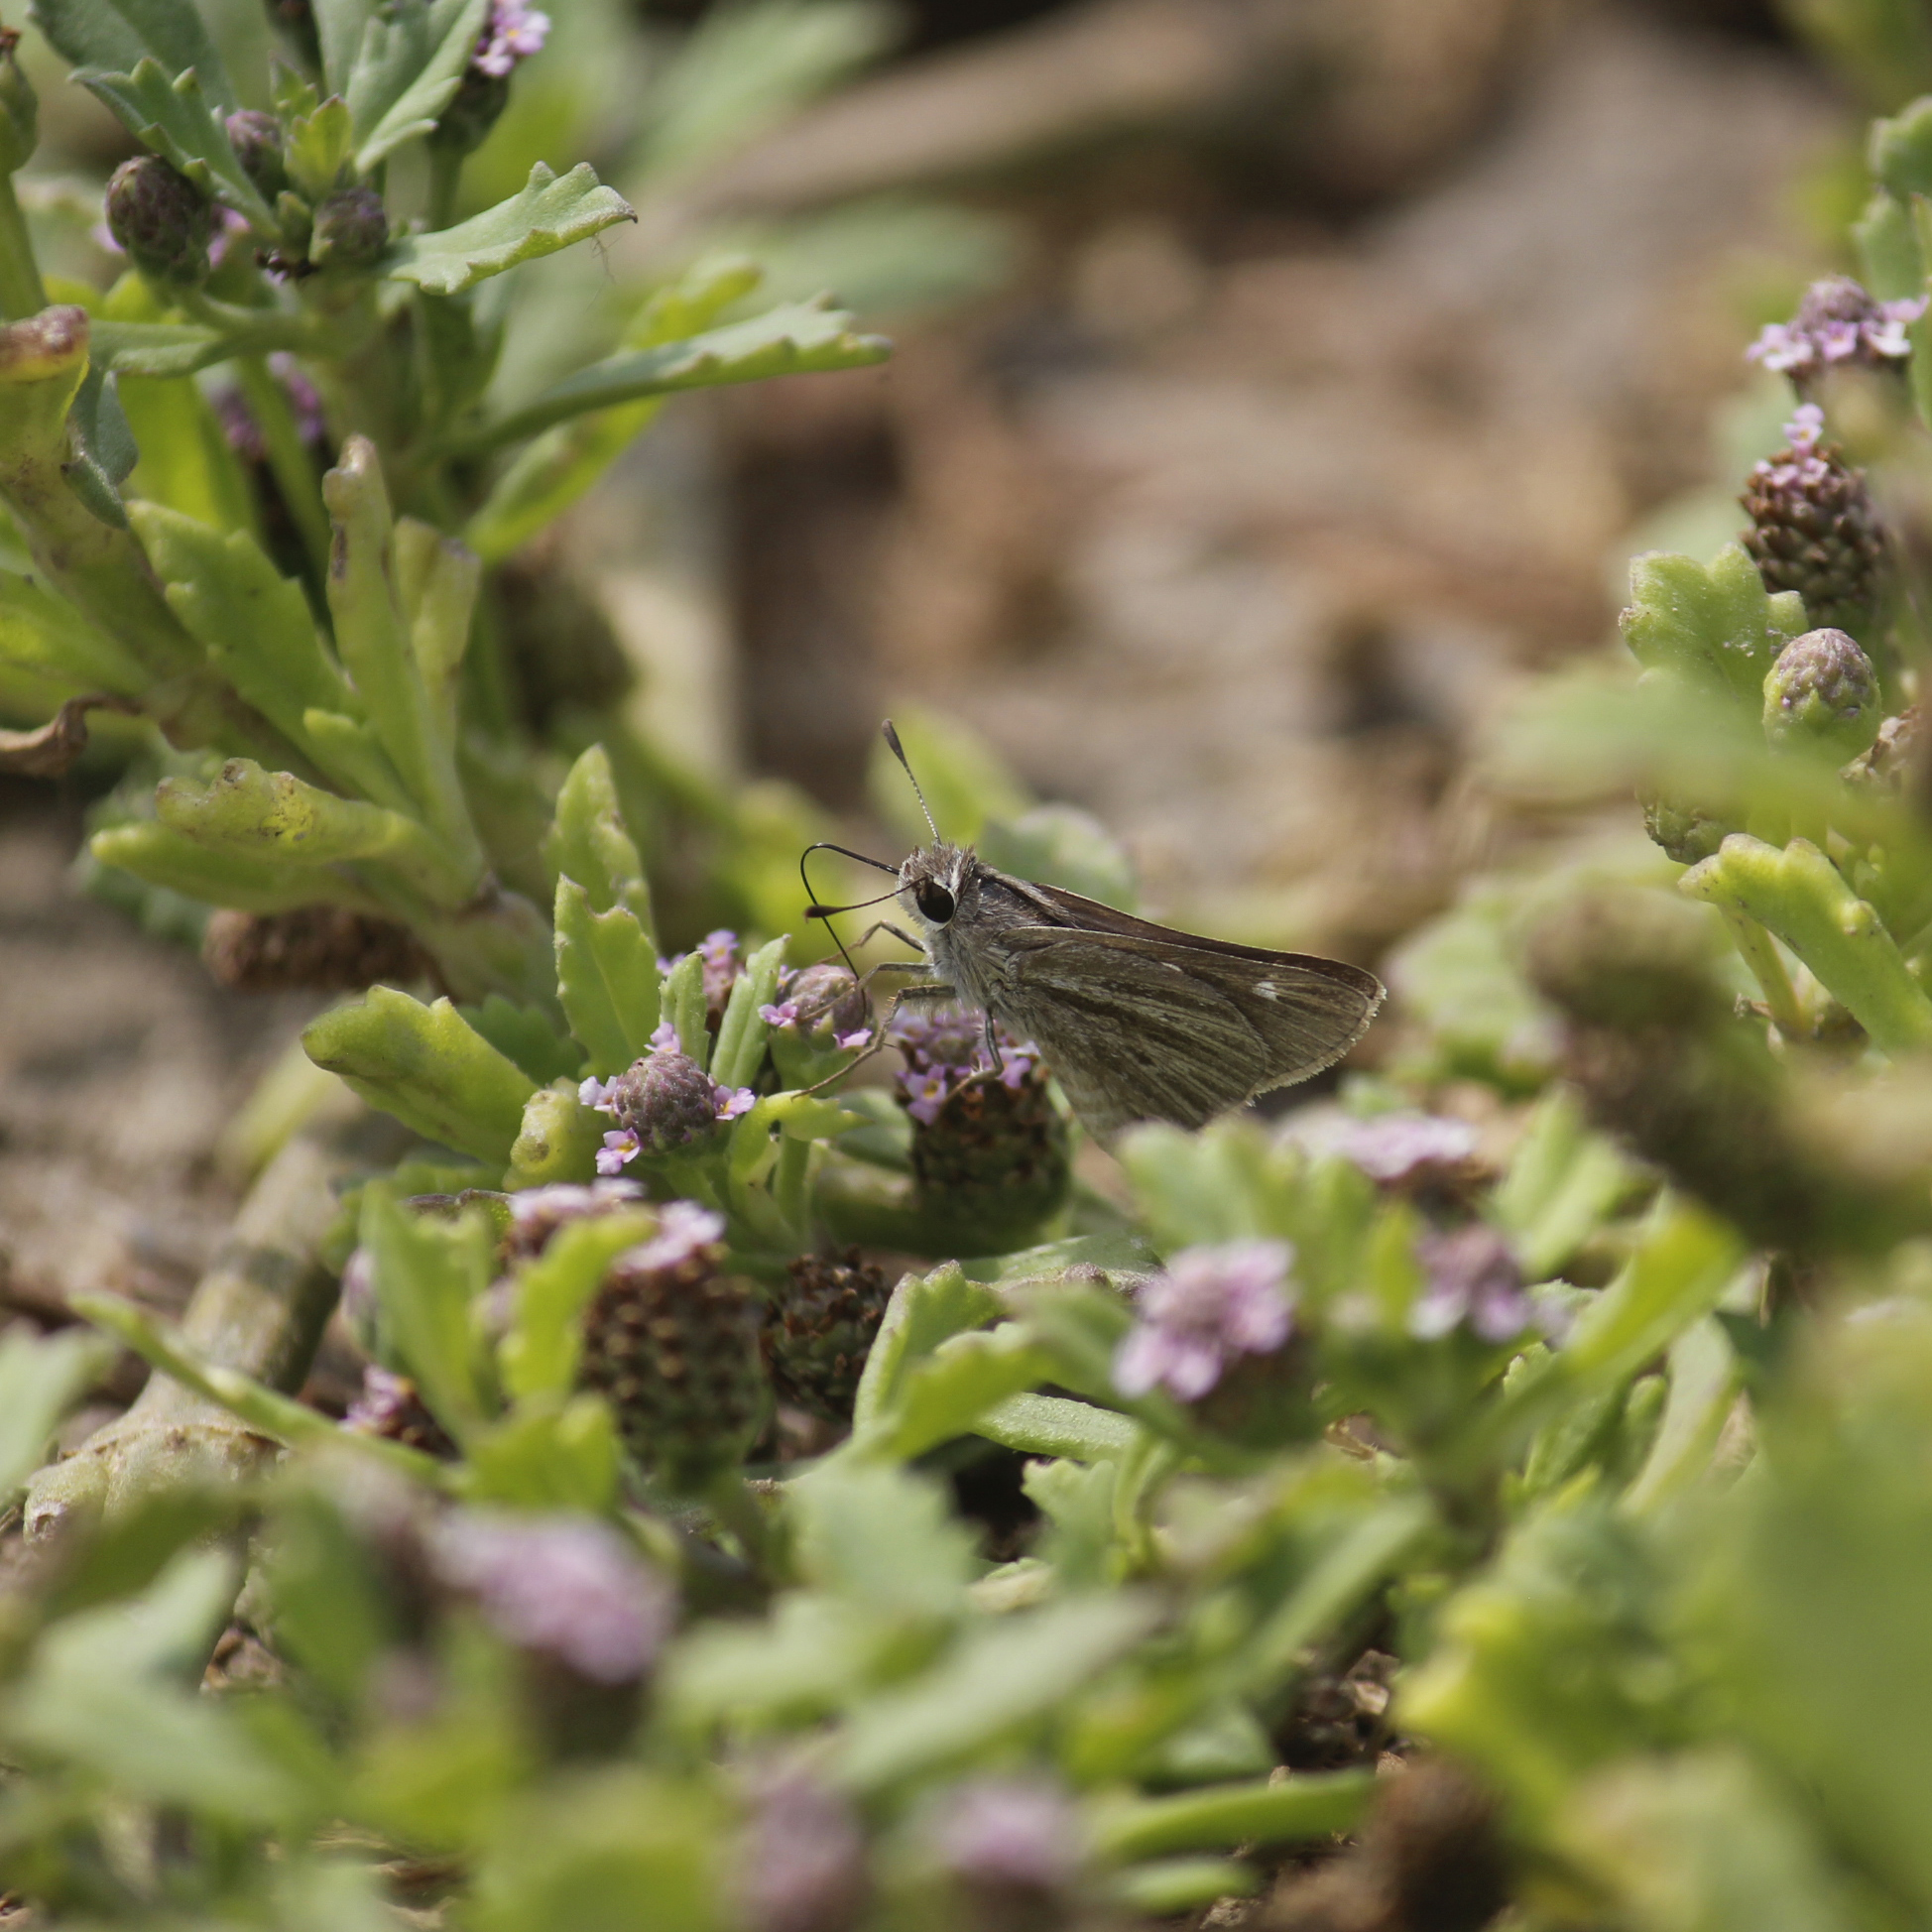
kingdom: Animalia
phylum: Arthropoda
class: Insecta
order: Lepidoptera
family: Hesperiidae
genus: Lerodea
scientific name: Lerodea gracia
